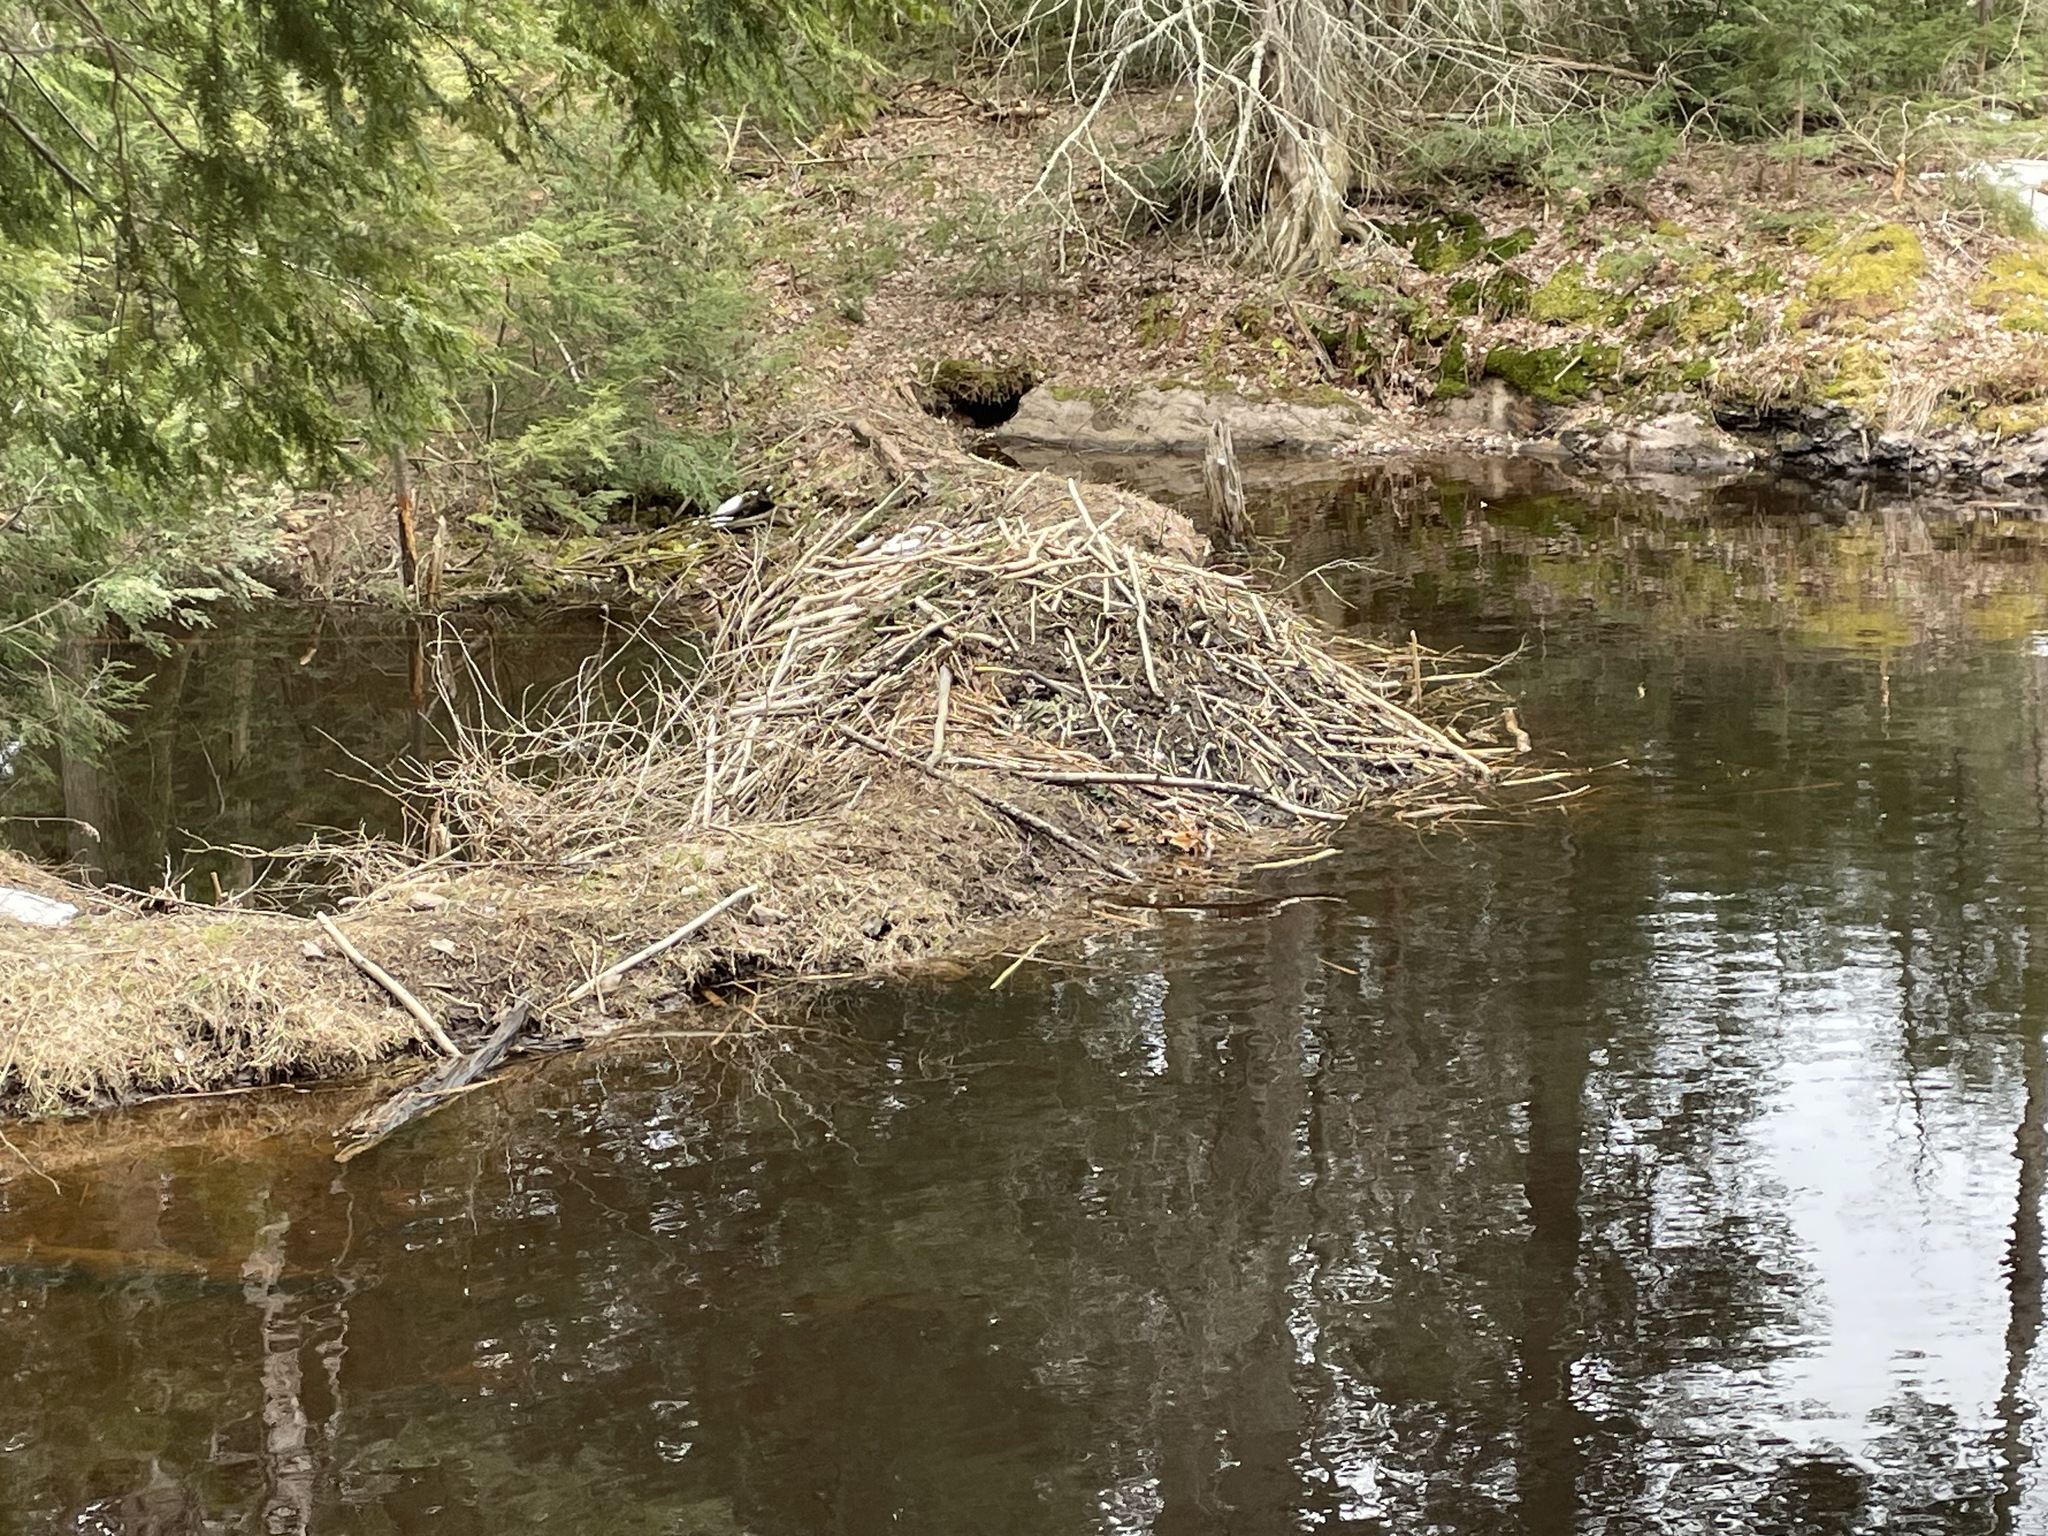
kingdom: Animalia
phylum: Chordata
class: Mammalia
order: Rodentia
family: Castoridae
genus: Castor
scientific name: Castor canadensis
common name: American beaver
